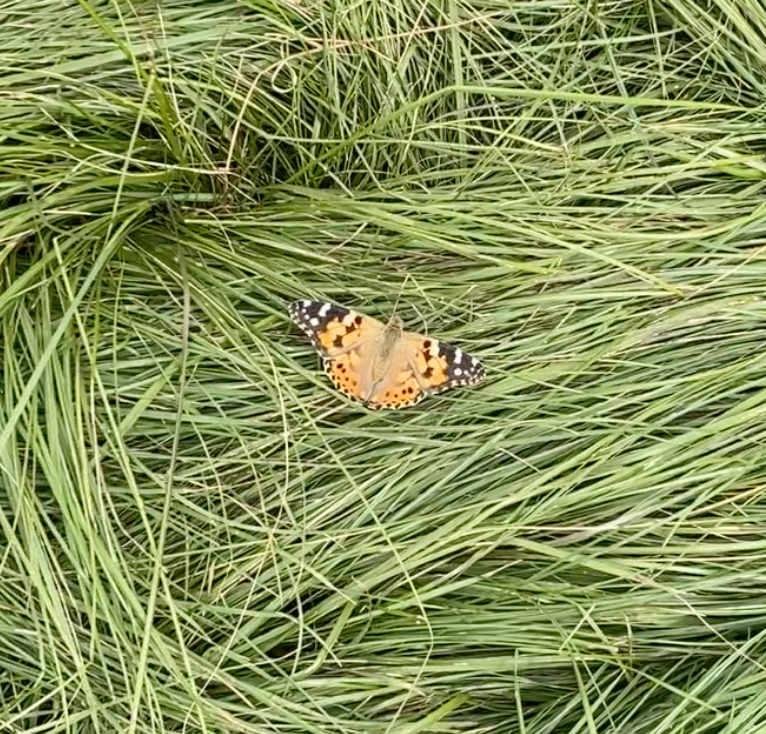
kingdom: Animalia
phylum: Arthropoda
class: Insecta
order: Lepidoptera
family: Nymphalidae
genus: Vanessa
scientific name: Vanessa cardui
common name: Painted lady
